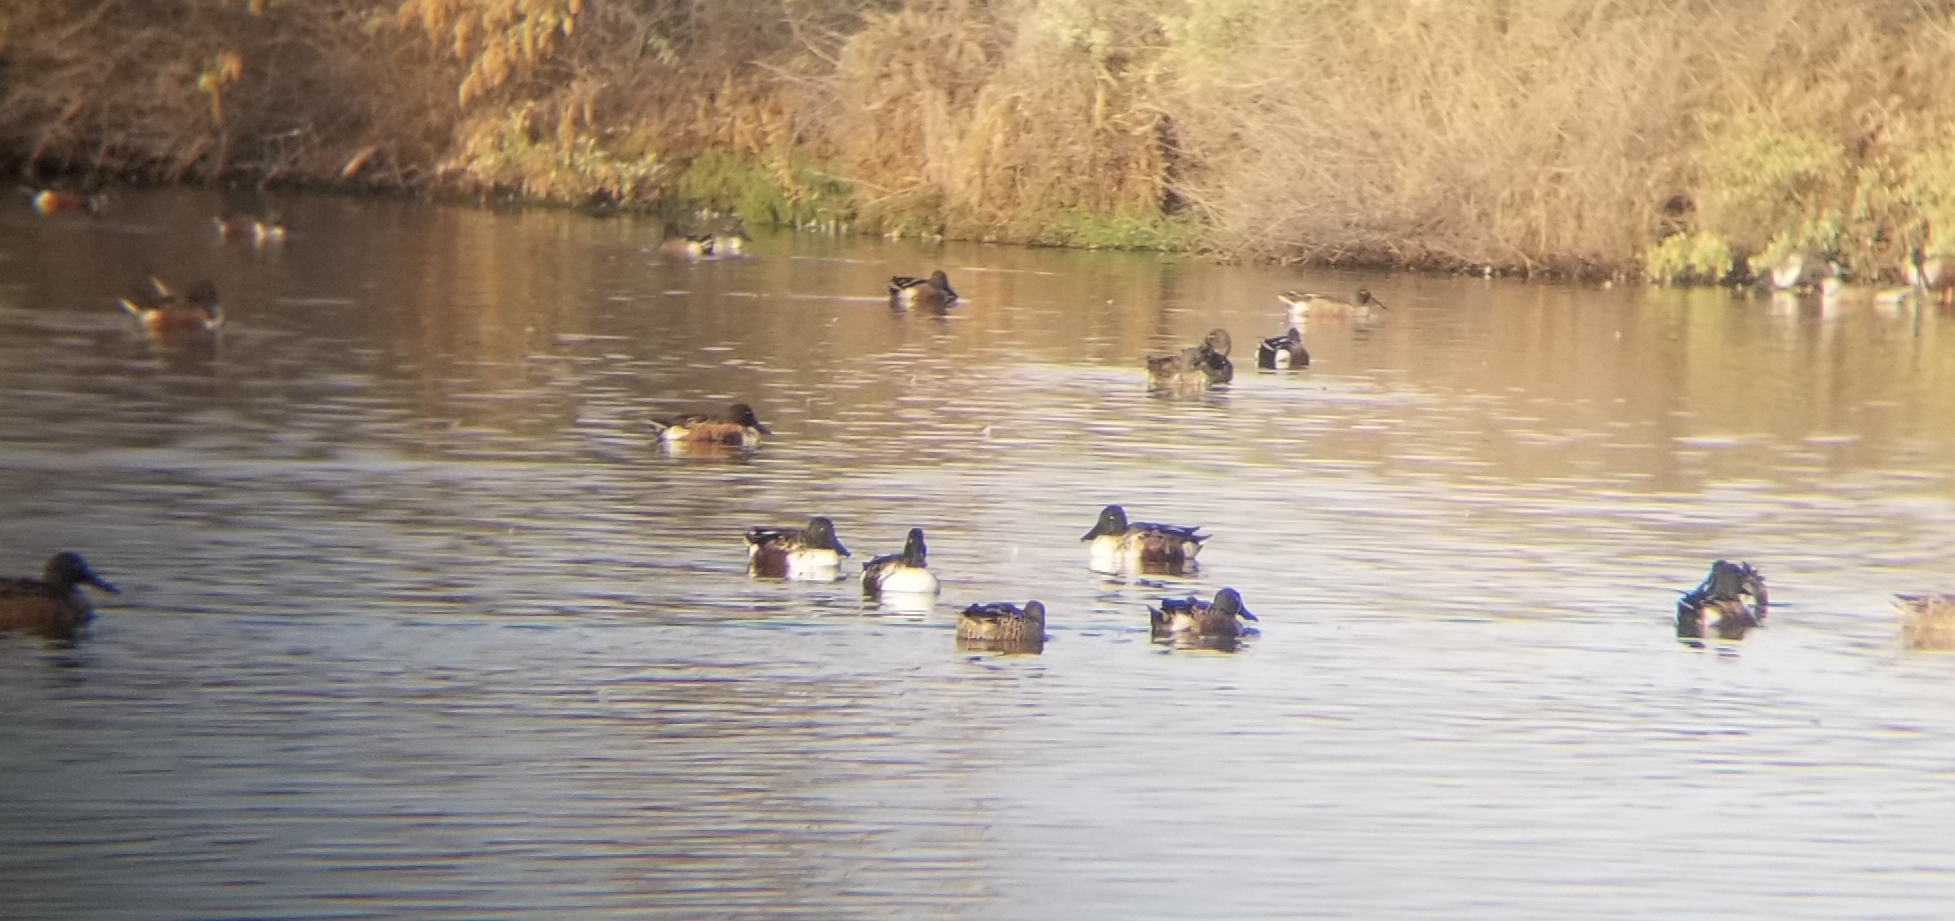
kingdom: Animalia
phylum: Chordata
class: Aves
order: Anseriformes
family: Anatidae
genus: Spatula
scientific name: Spatula clypeata
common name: Northern shoveler
